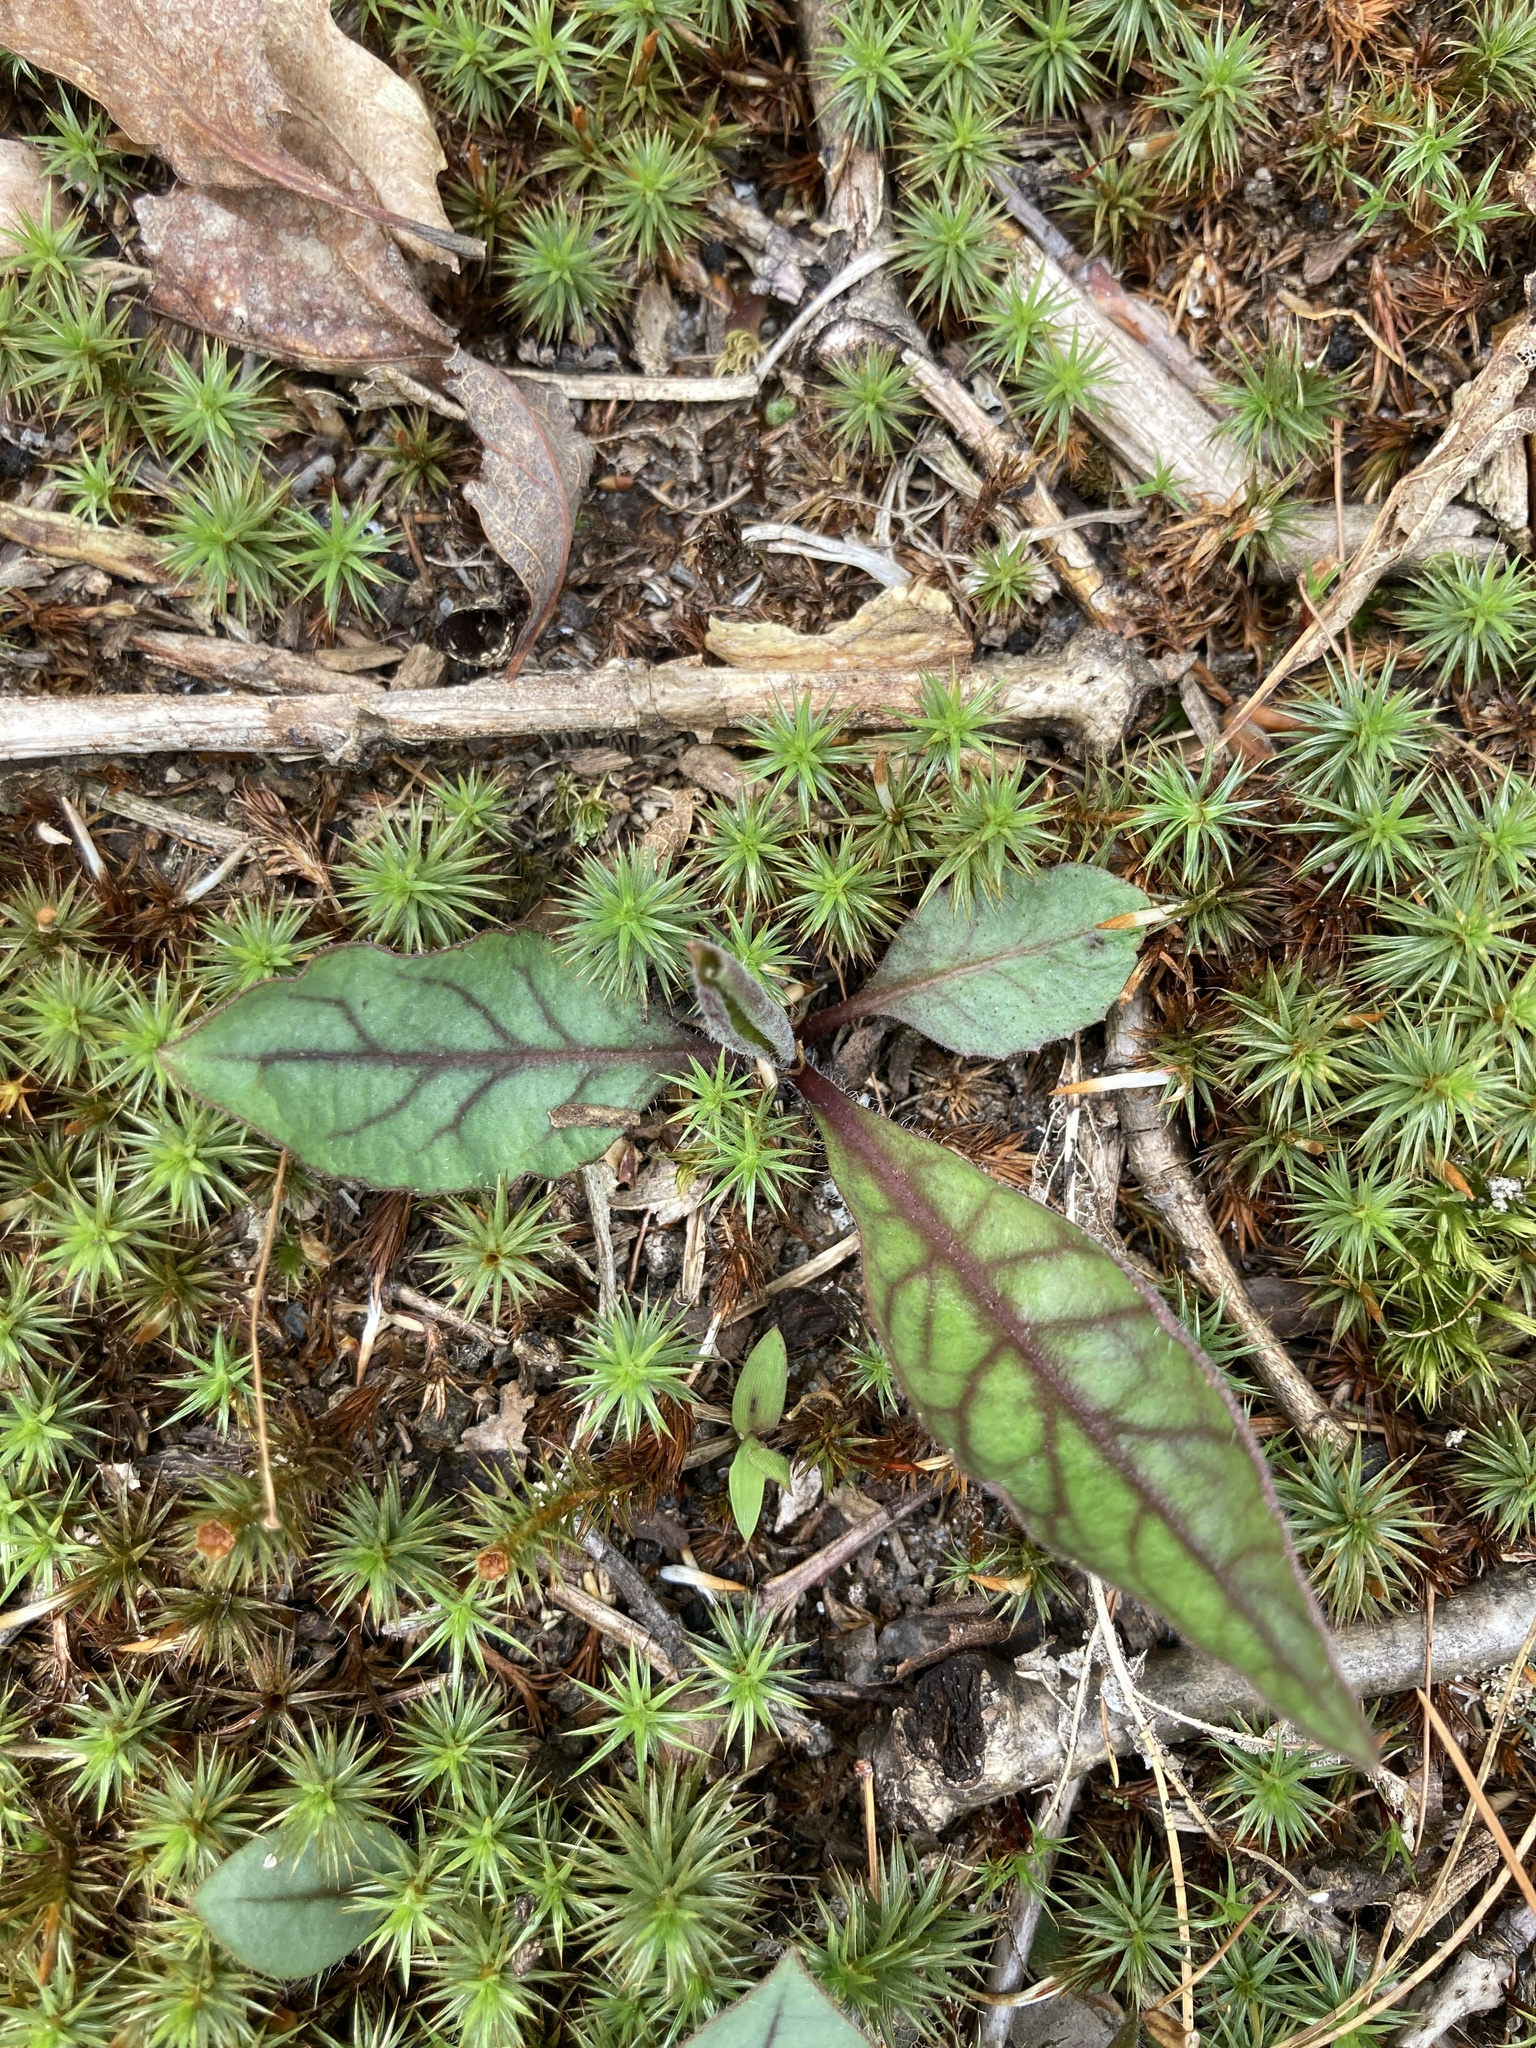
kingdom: Plantae
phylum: Tracheophyta
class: Magnoliopsida
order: Asterales
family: Asteraceae
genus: Hieracium
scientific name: Hieracium venosum
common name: Rattlesnake hawkweed
